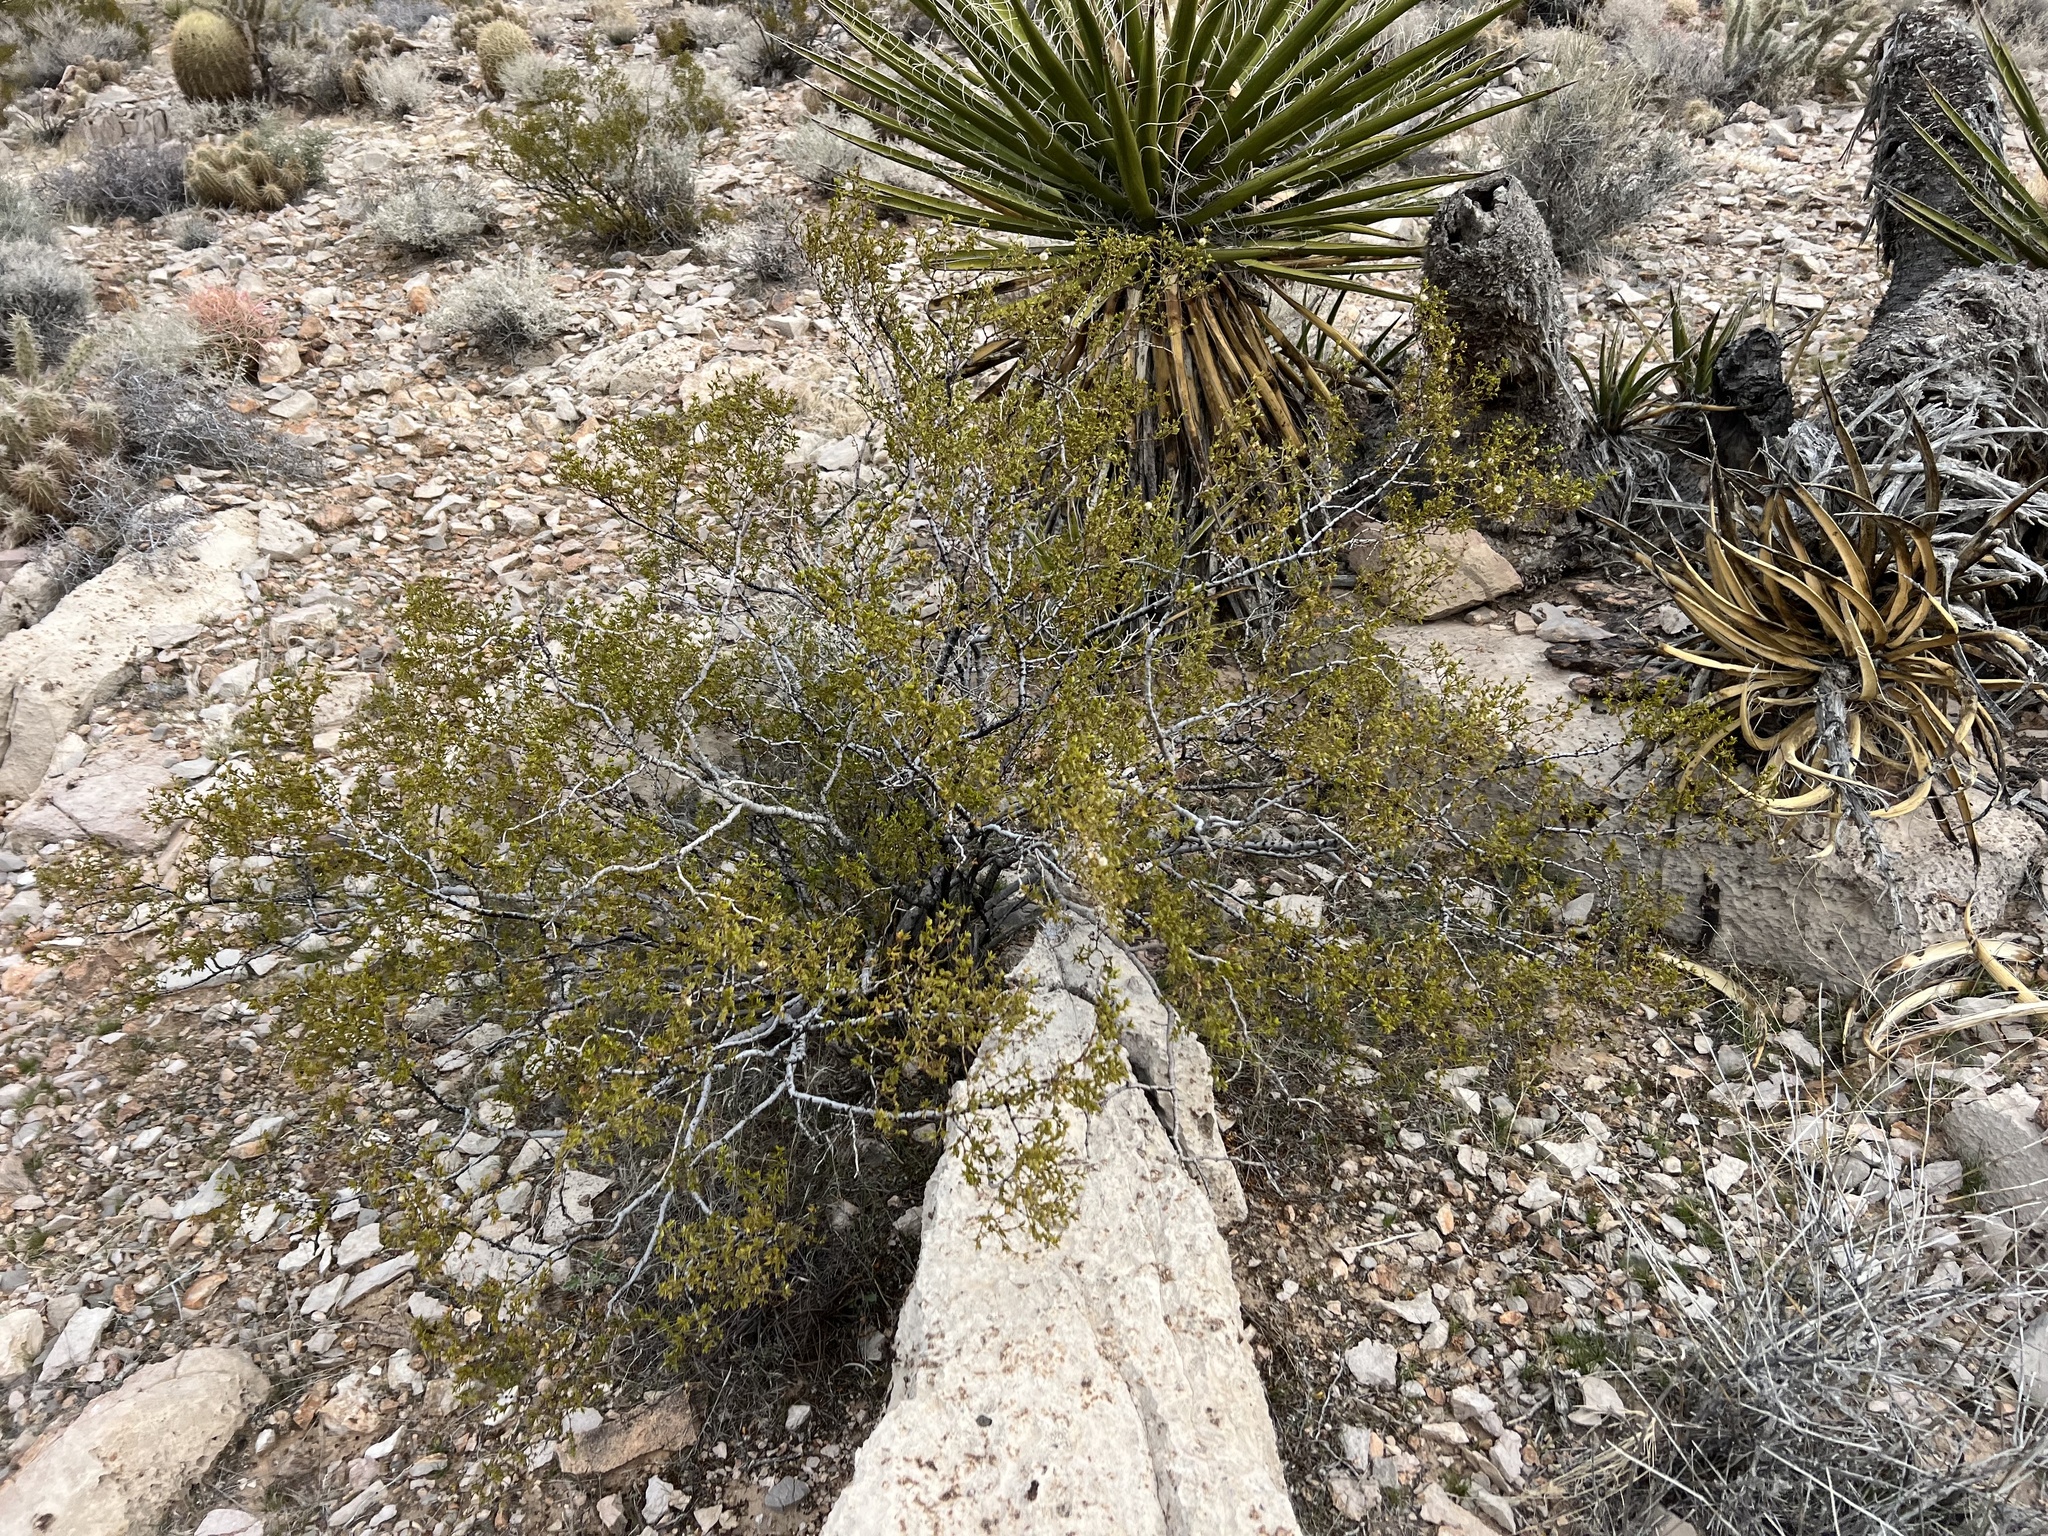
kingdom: Plantae
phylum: Tracheophyta
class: Magnoliopsida
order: Zygophyllales
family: Zygophyllaceae
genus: Larrea
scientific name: Larrea tridentata
